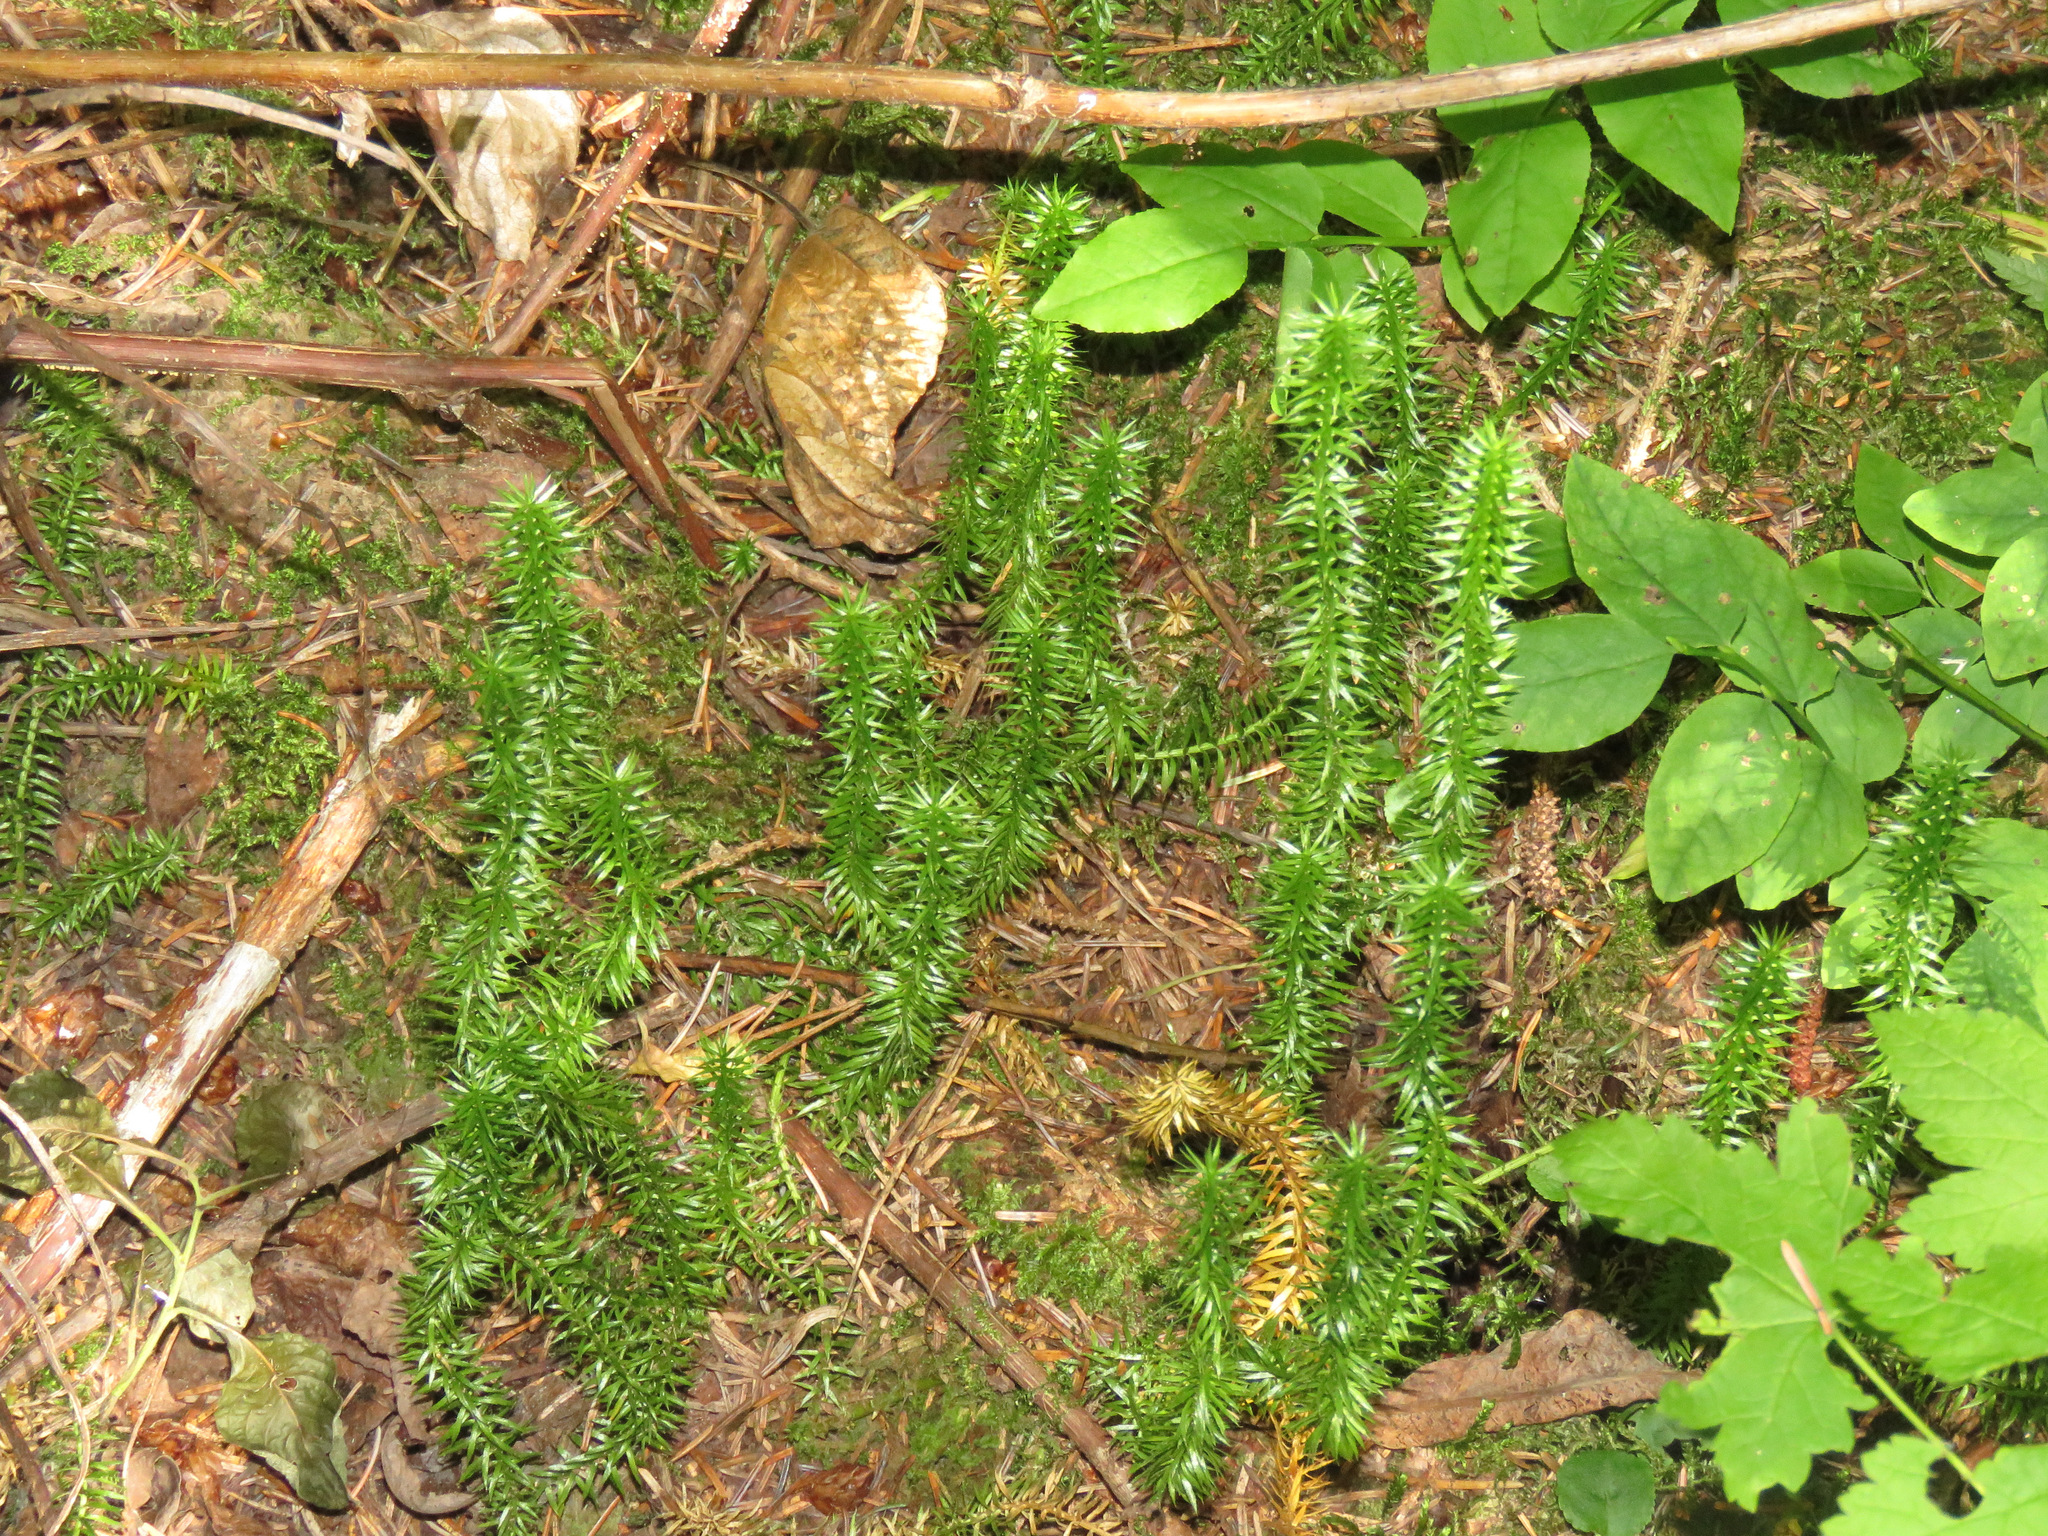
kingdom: Plantae
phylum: Tracheophyta
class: Lycopodiopsida
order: Lycopodiales
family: Lycopodiaceae
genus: Spinulum
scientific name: Spinulum annotinum
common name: Interrupted club-moss
